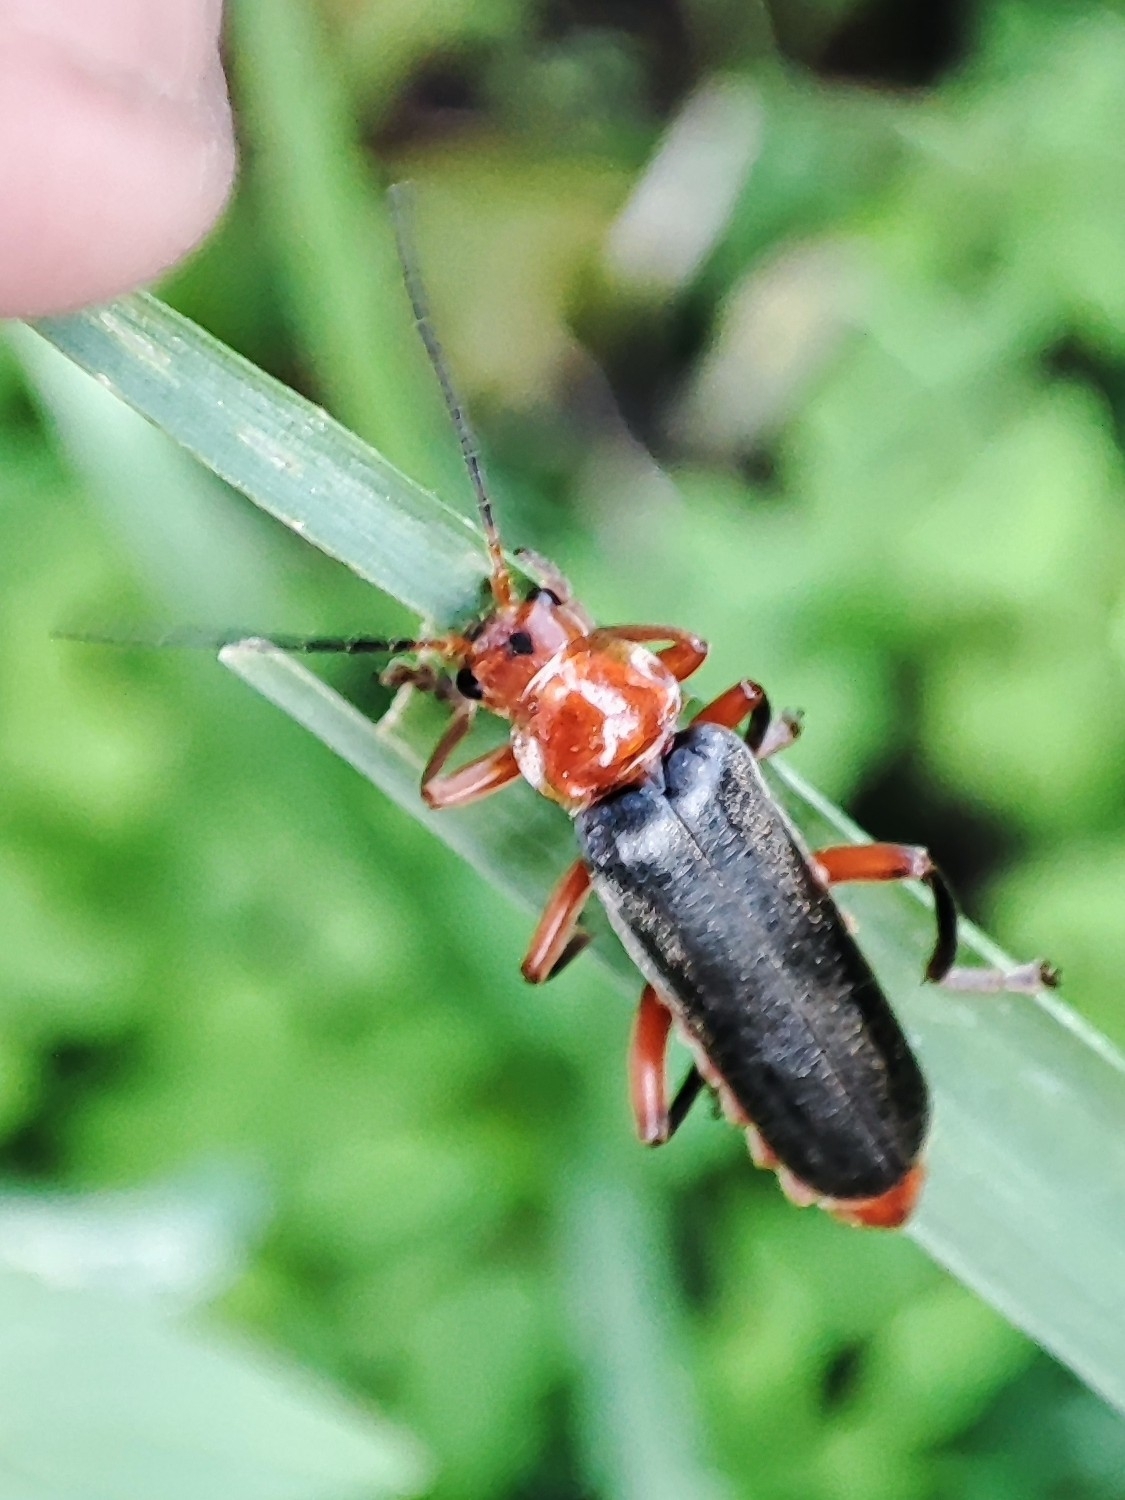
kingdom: Animalia
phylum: Arthropoda
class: Insecta
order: Coleoptera
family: Cantharidae
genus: Cantharis
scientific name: Cantharis livida
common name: Livid soldier beetle
